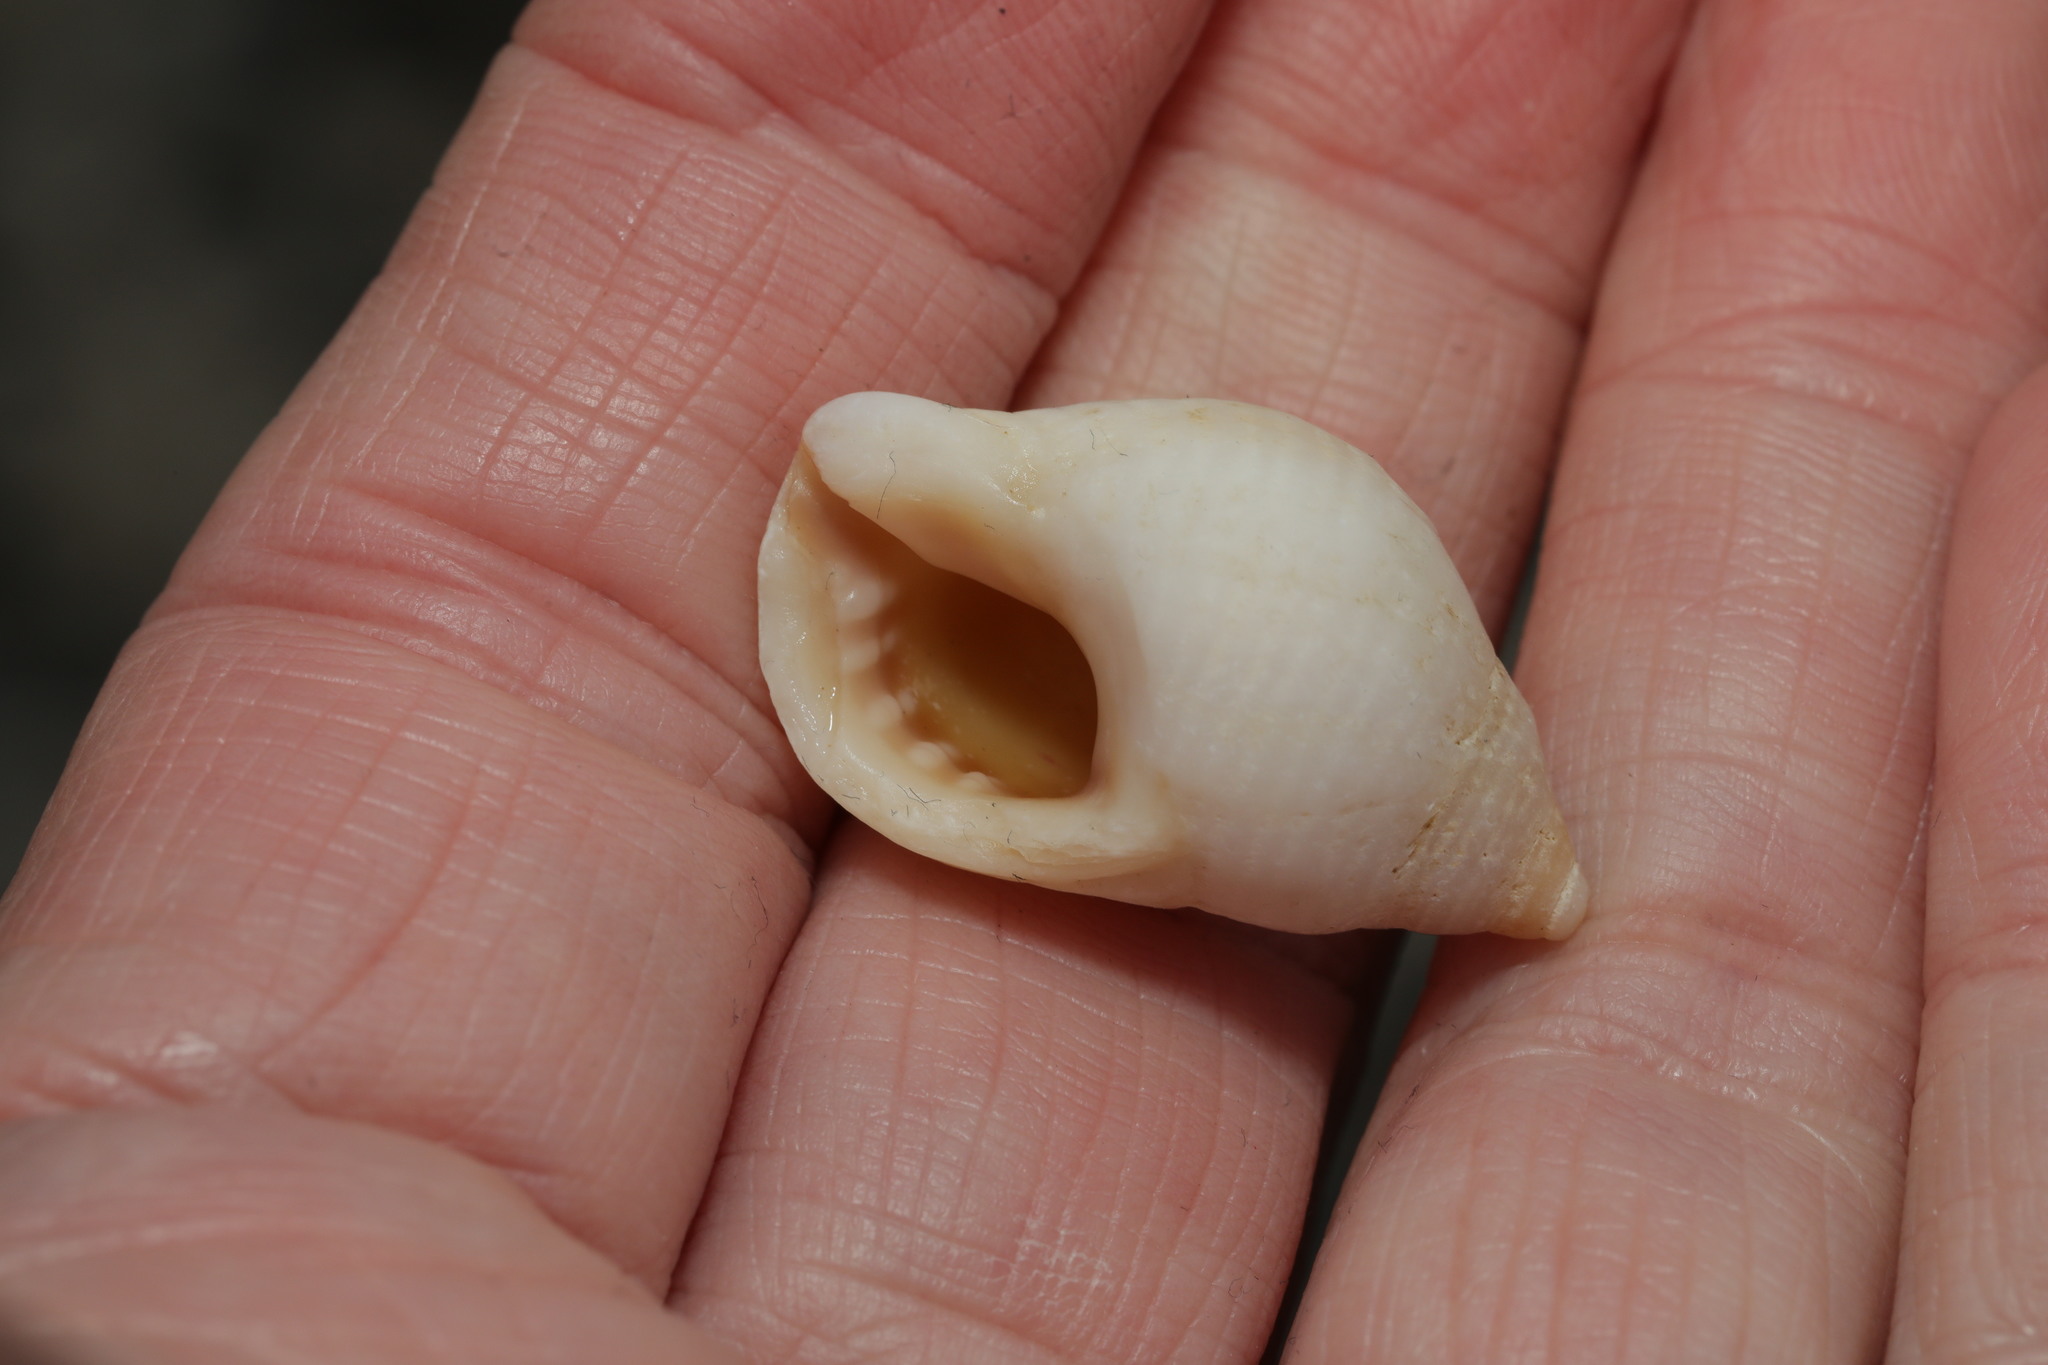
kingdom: Animalia
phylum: Mollusca
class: Gastropoda
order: Neogastropoda
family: Muricidae
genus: Nucella
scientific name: Nucella lapillus
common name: Dog whelk
